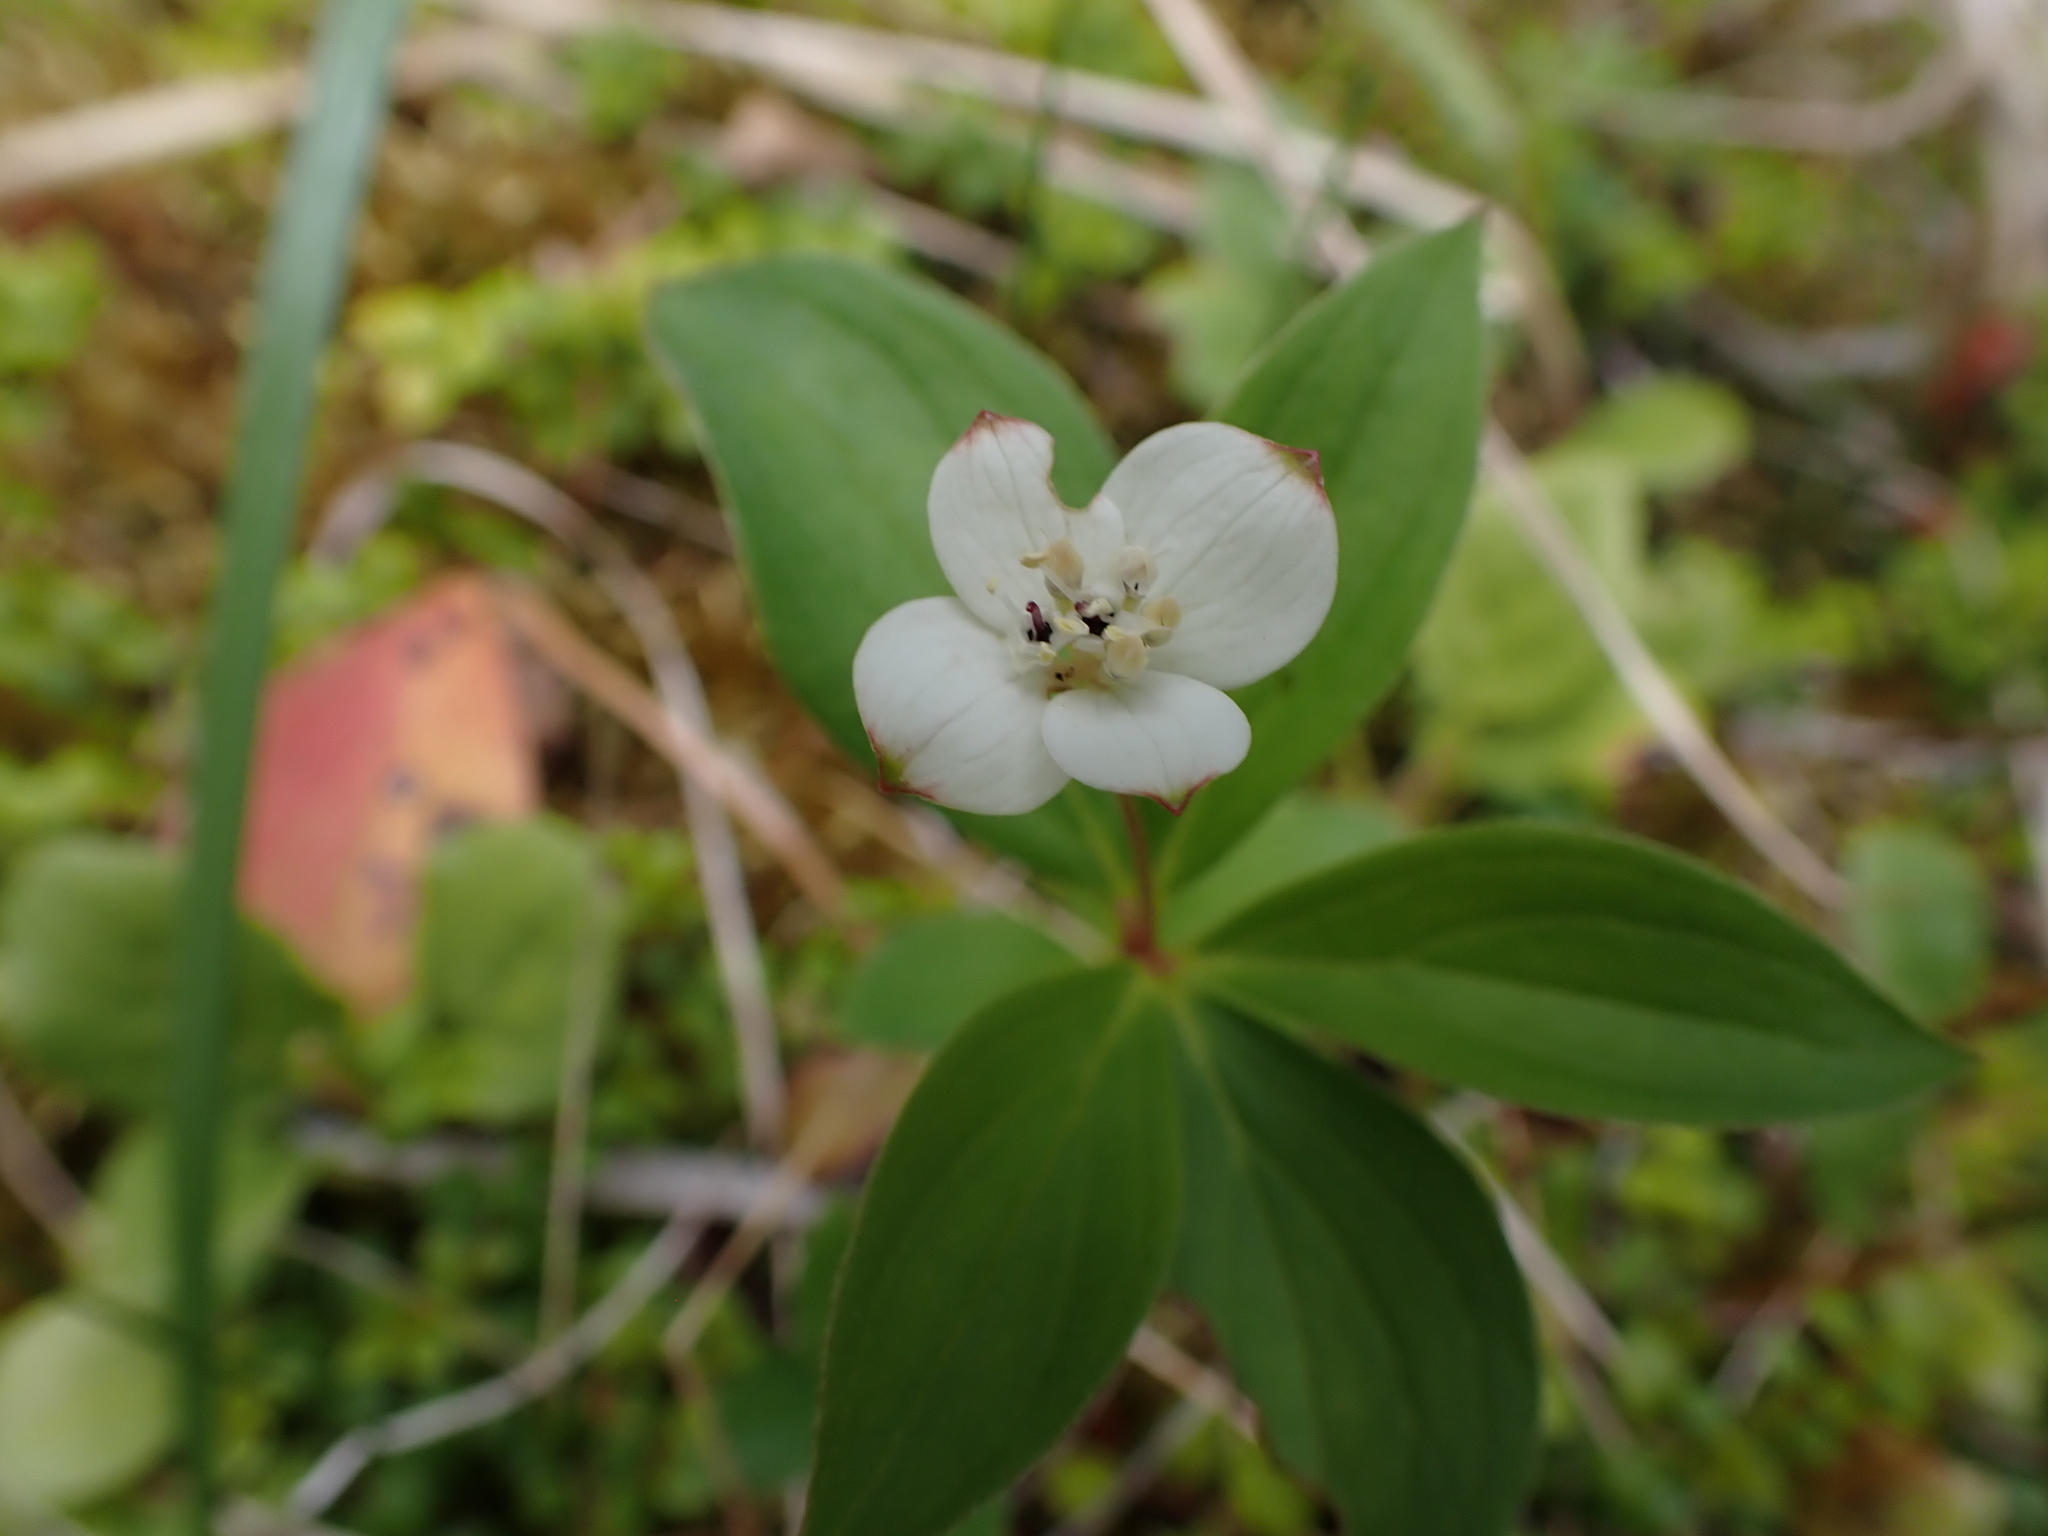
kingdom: Plantae
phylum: Tracheophyta
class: Magnoliopsida
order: Cornales
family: Cornaceae
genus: Cornus
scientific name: Cornus canadensis
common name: Creeping dogwood
